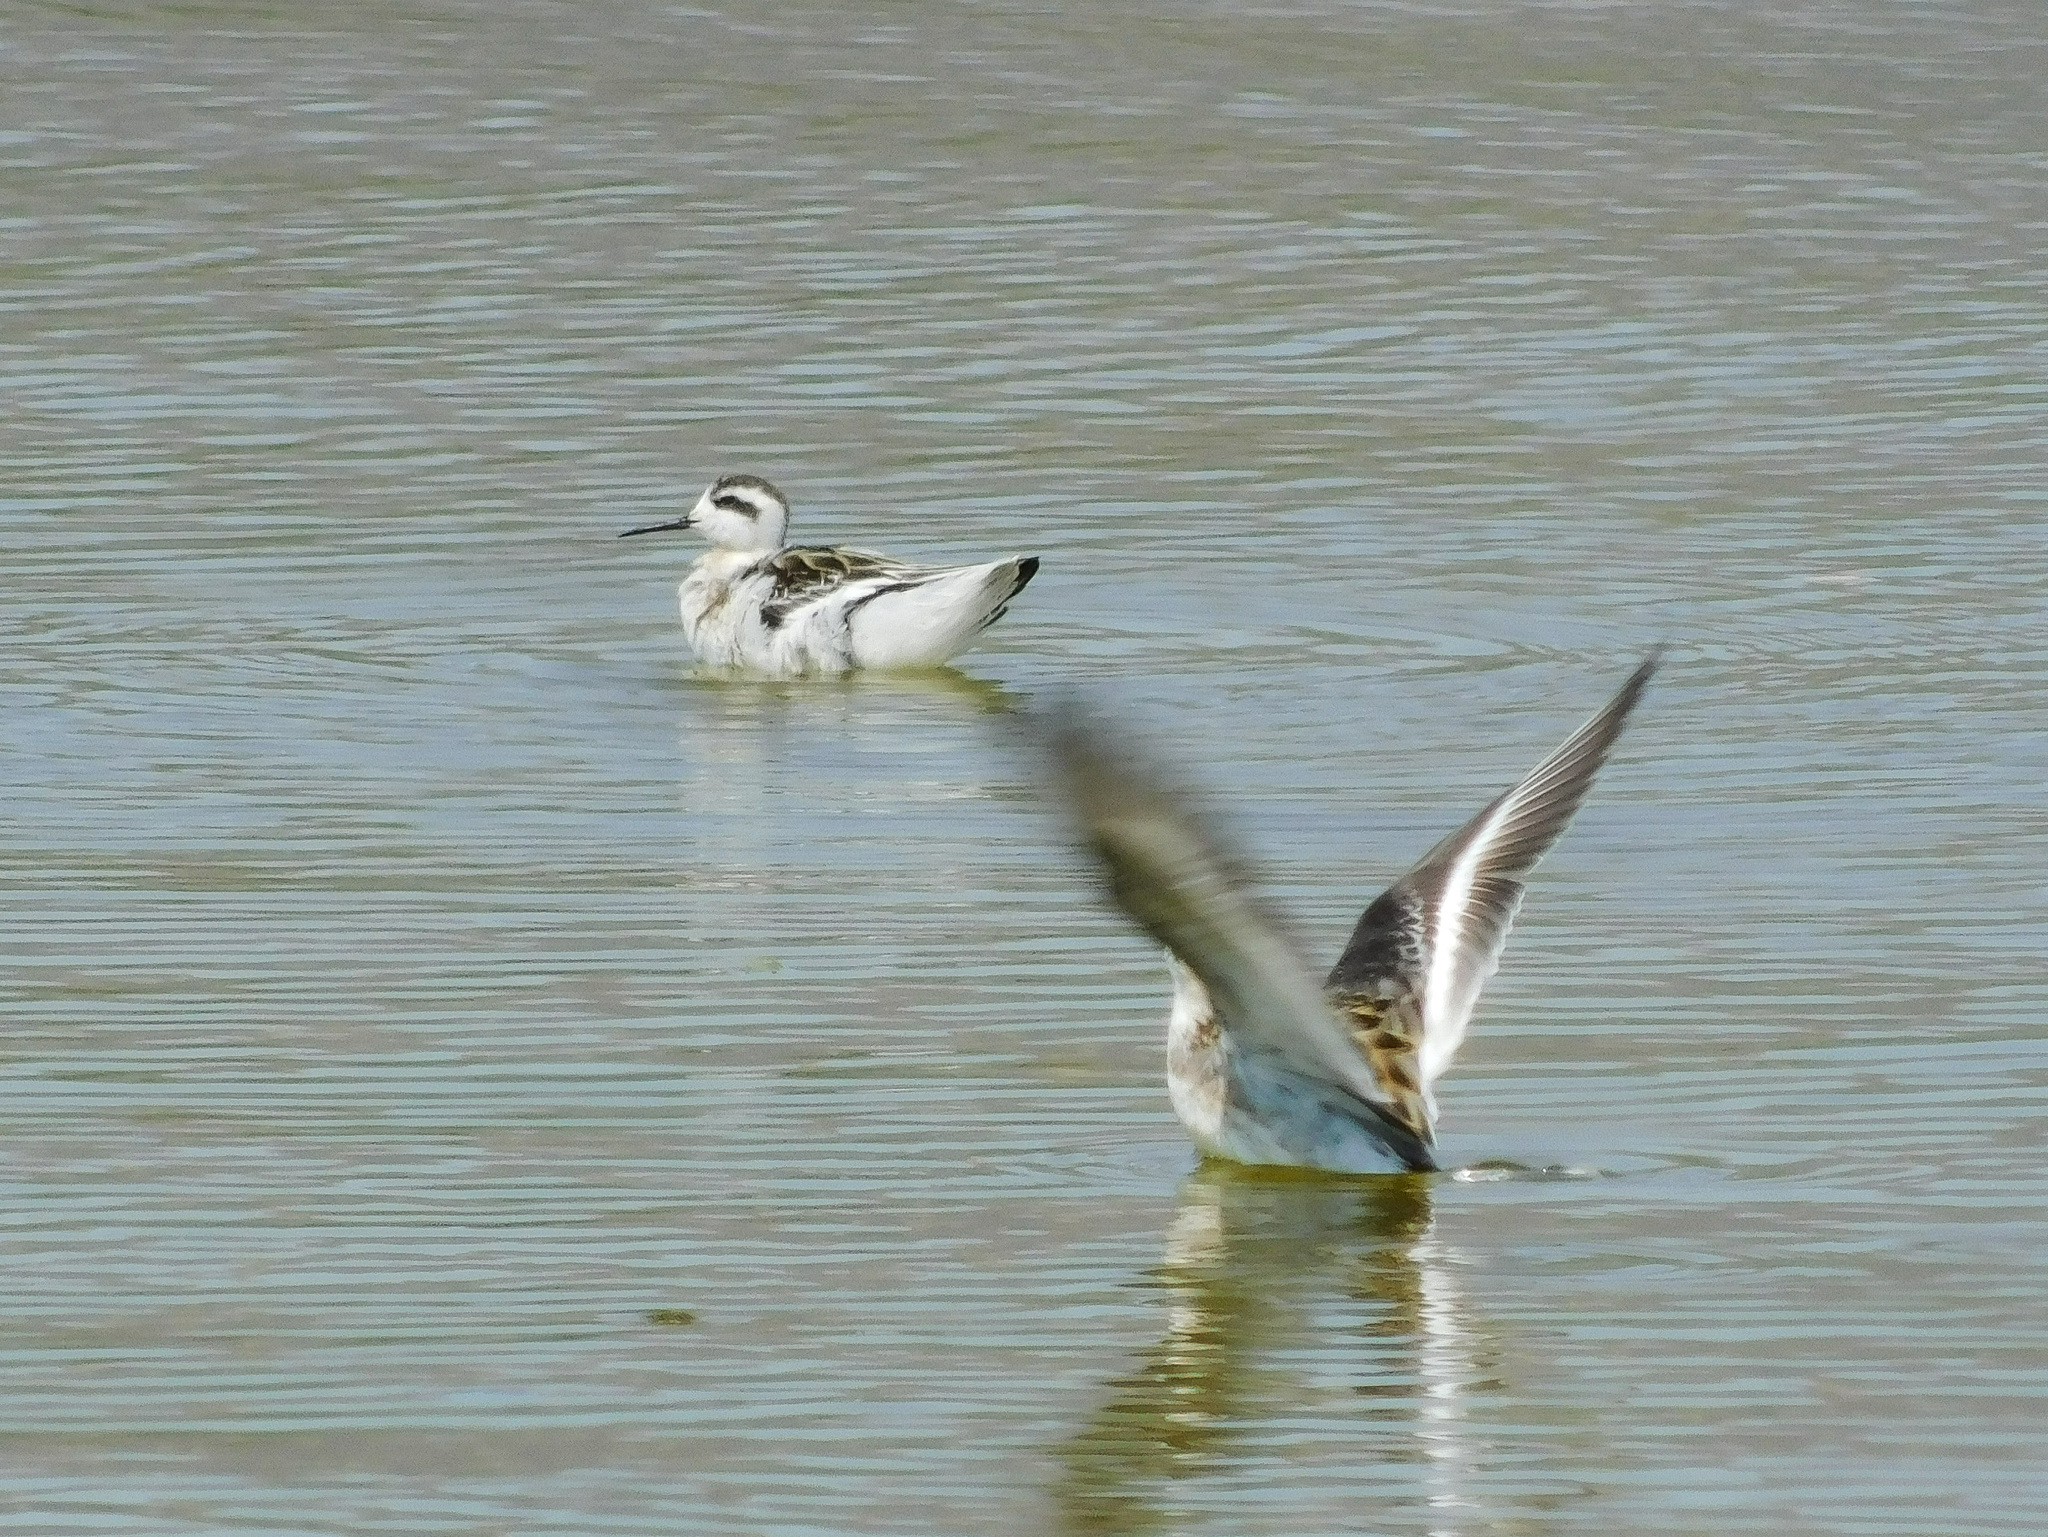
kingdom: Animalia
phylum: Chordata
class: Aves
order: Charadriiformes
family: Scolopacidae
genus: Phalaropus
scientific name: Phalaropus lobatus
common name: Red-necked phalarope
